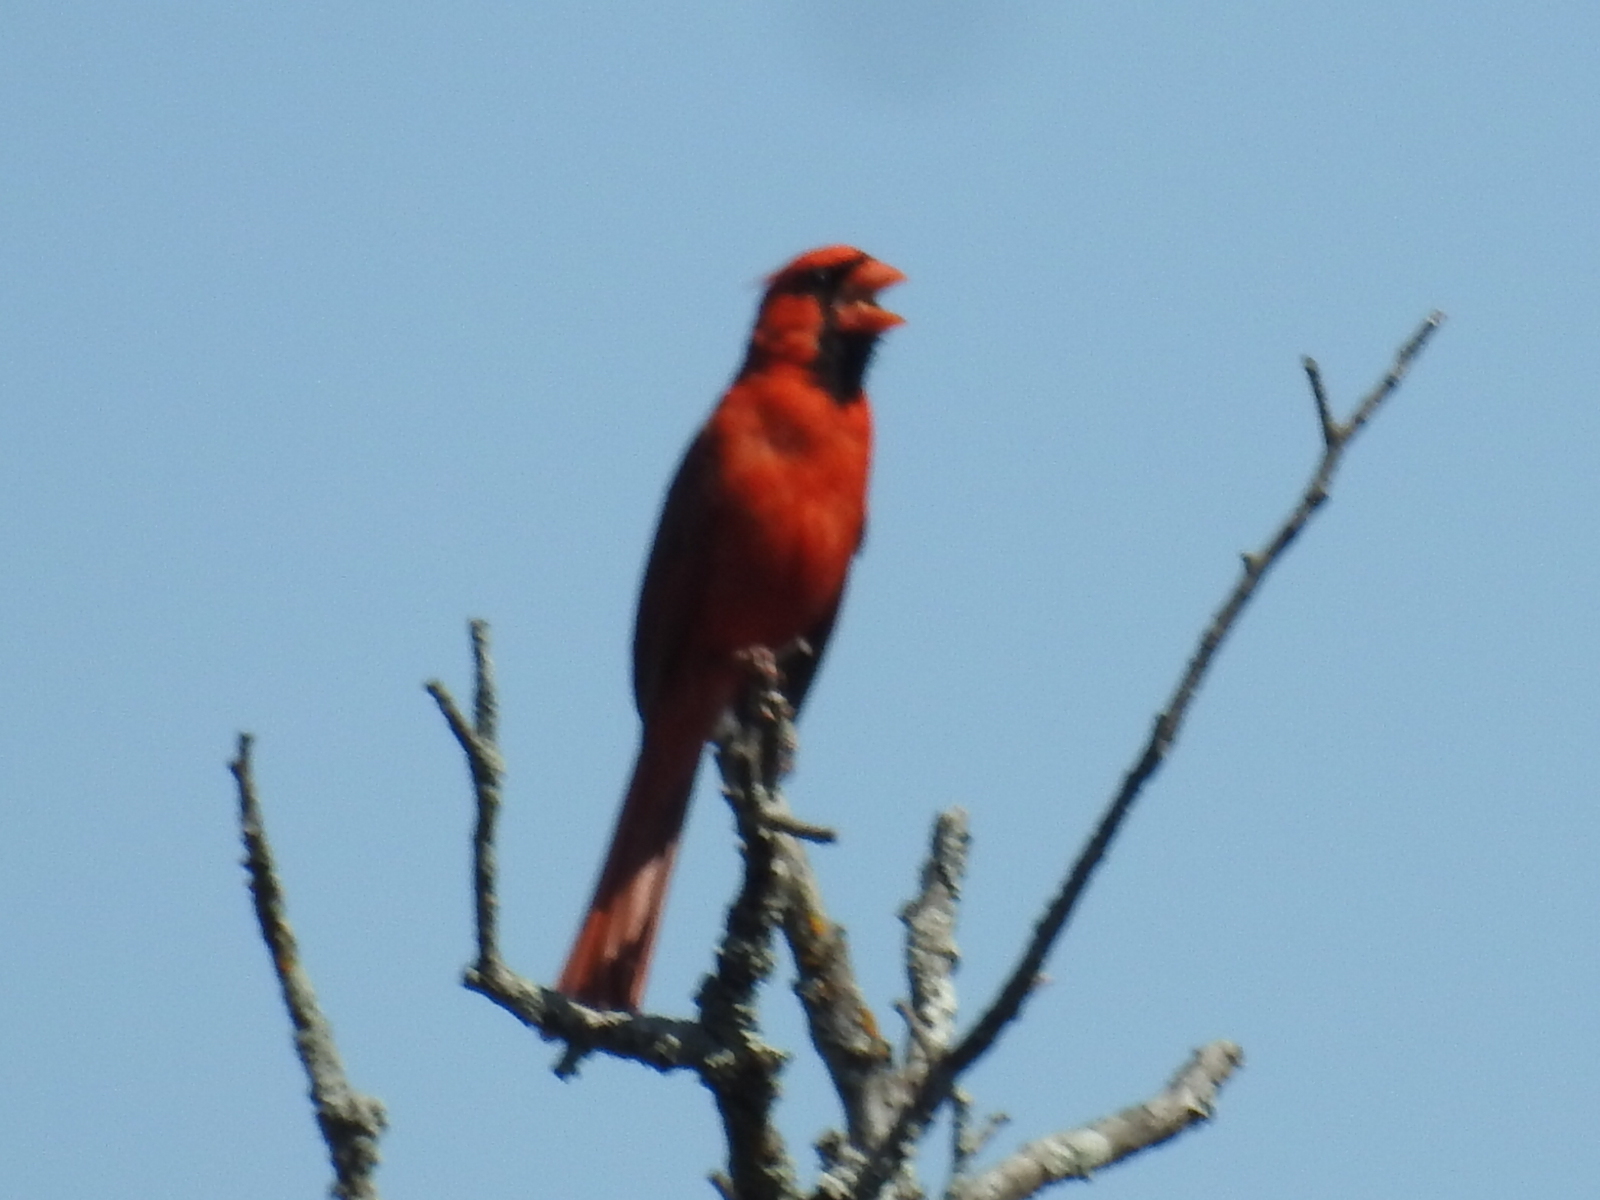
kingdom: Animalia
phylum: Chordata
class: Aves
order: Passeriformes
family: Cardinalidae
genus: Cardinalis
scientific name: Cardinalis cardinalis
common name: Northern cardinal
